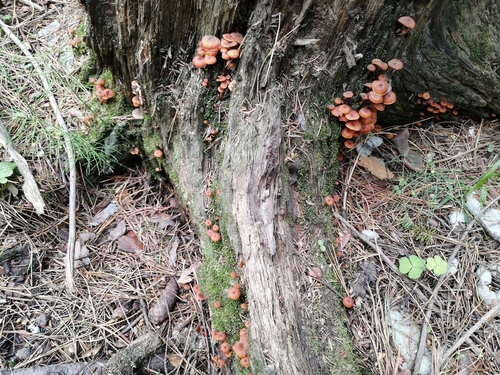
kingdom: Fungi
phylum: Basidiomycota
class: Agaricomycetes
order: Agaricales
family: Mycenaceae
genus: Xeromphalina
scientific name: Xeromphalina campanella
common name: Pinewood gingertail
